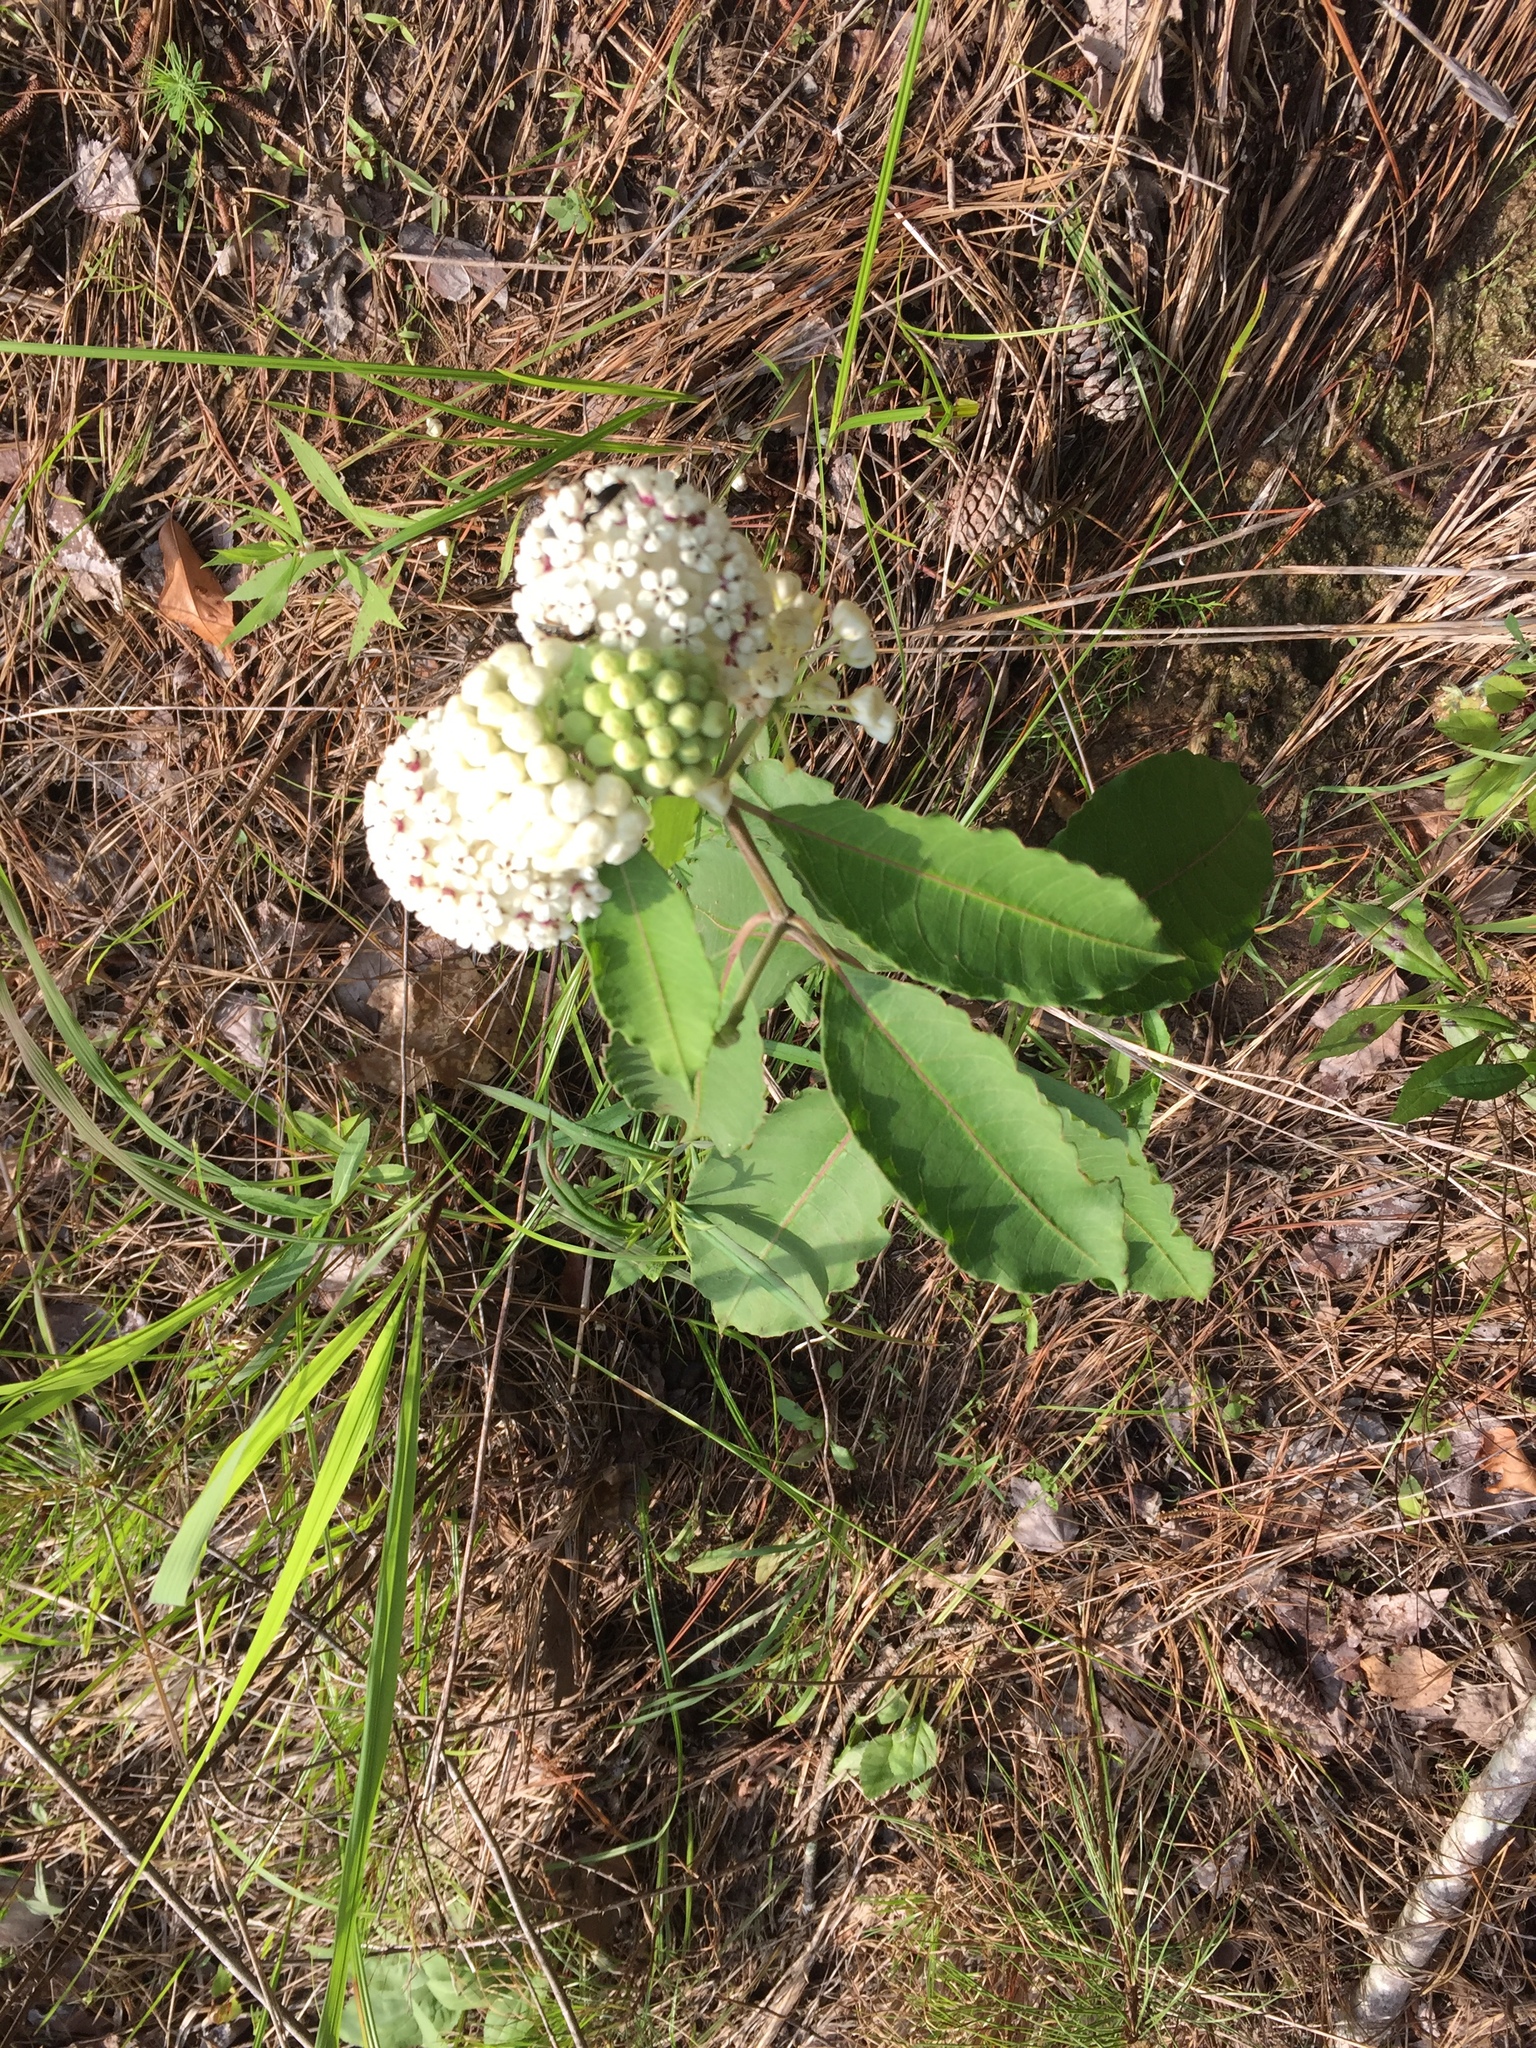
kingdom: Plantae
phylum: Tracheophyta
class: Magnoliopsida
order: Gentianales
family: Apocynaceae
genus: Asclepias
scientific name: Asclepias variegata
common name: Variegated milkweed
